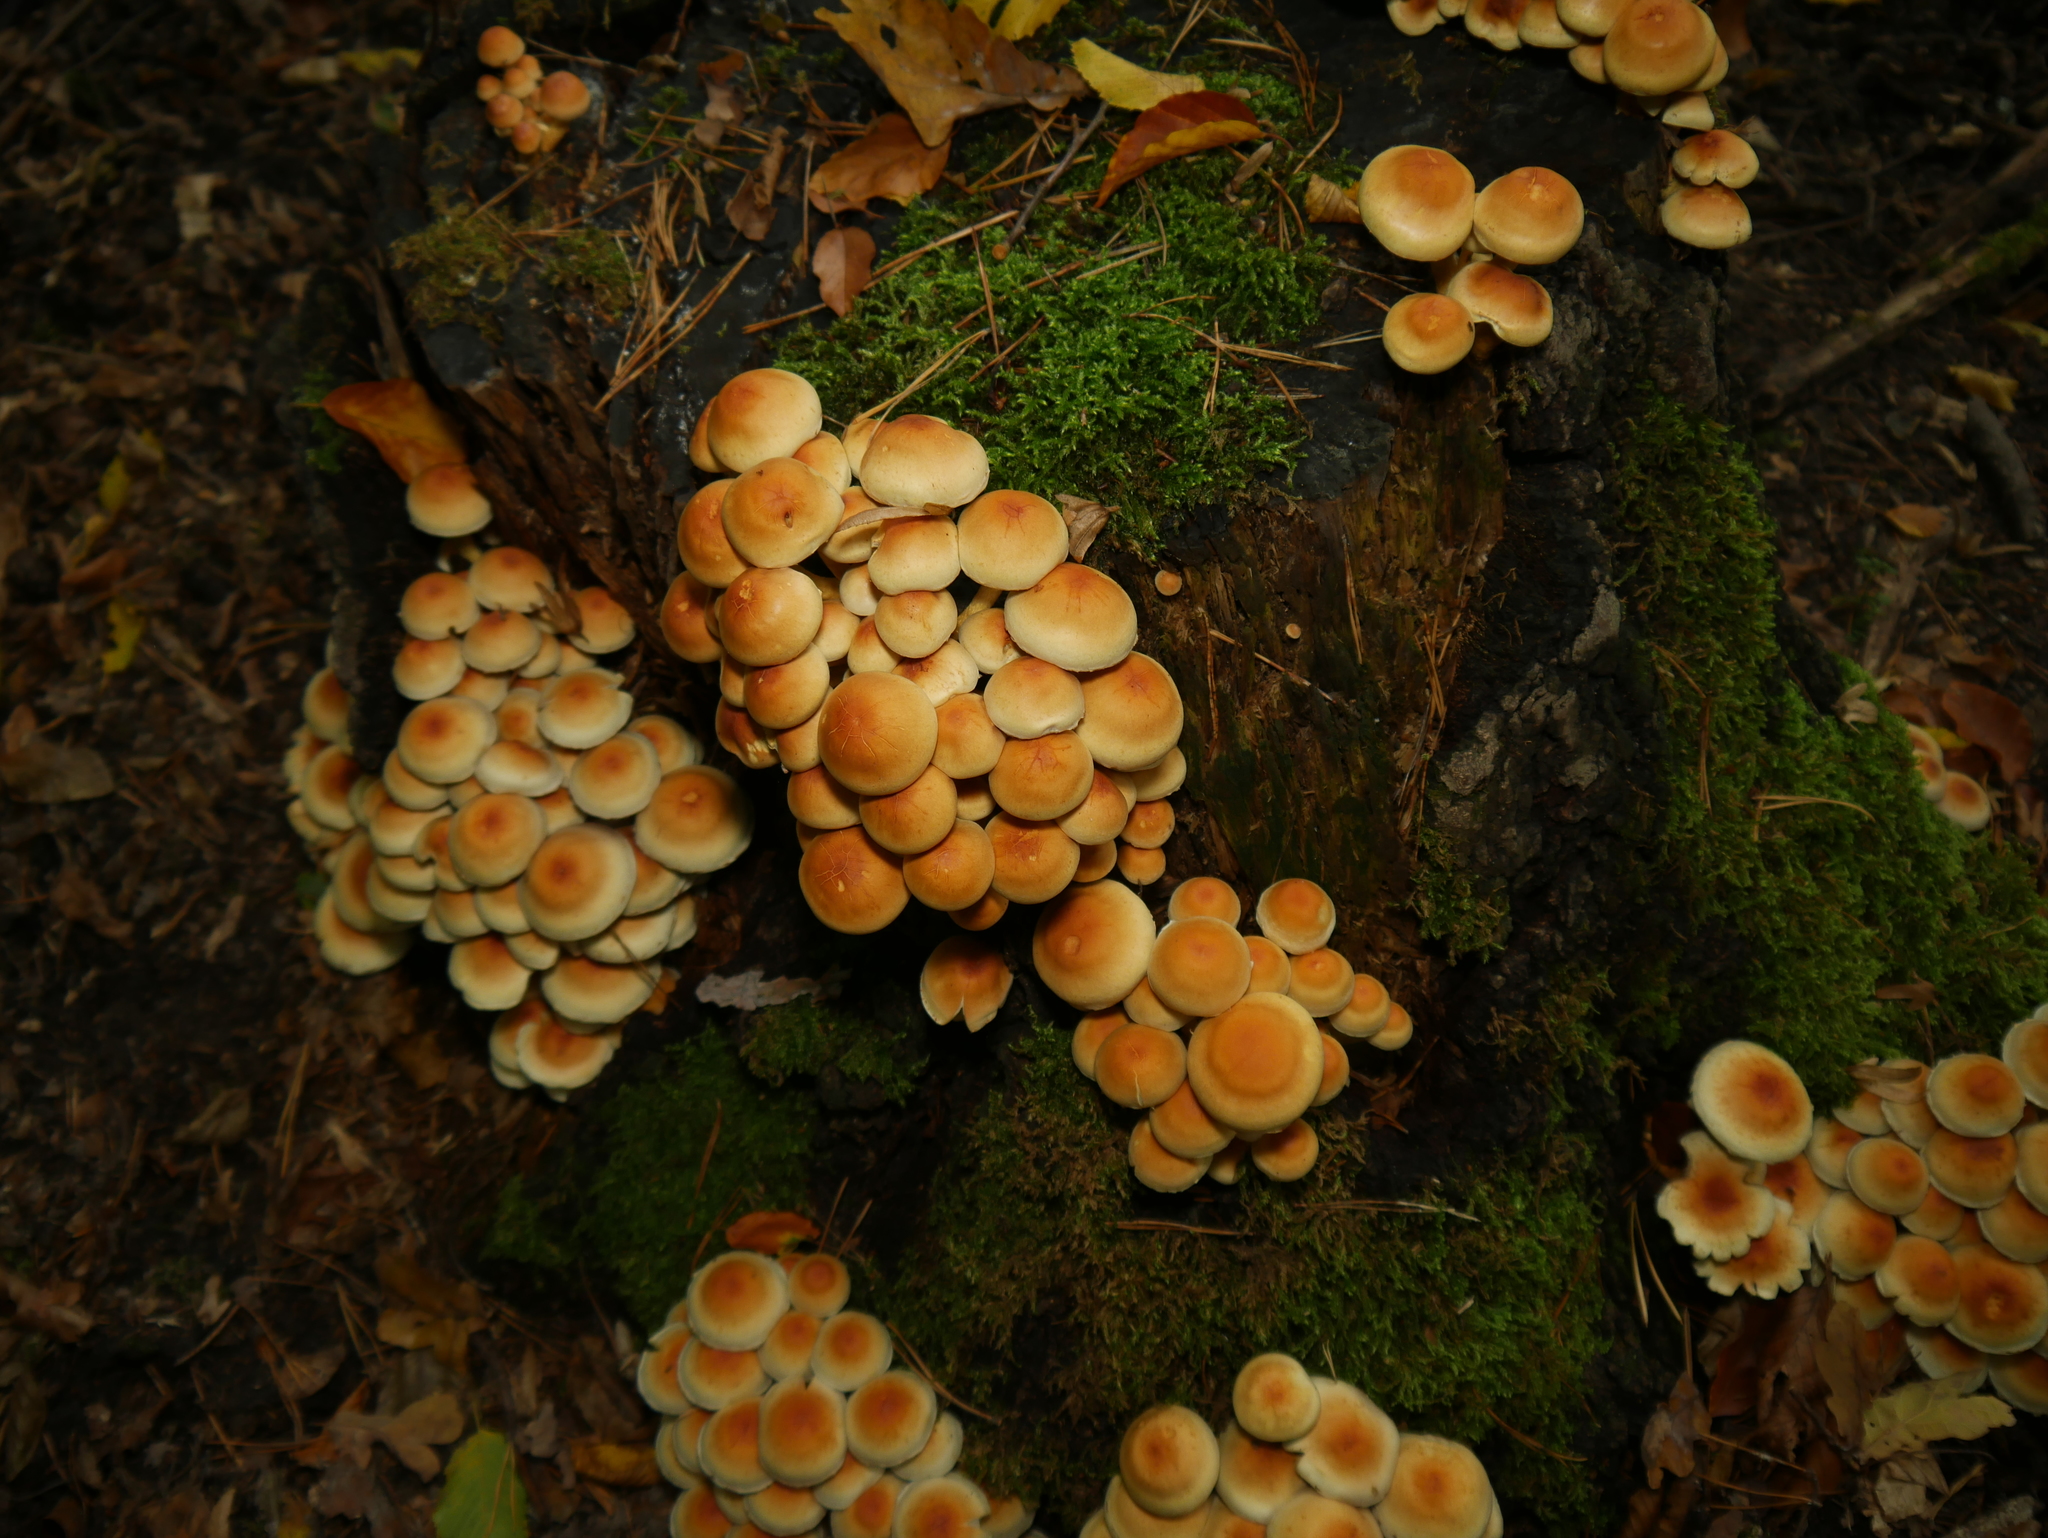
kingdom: Fungi
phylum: Basidiomycota
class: Agaricomycetes
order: Agaricales
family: Strophariaceae
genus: Hypholoma
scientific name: Hypholoma fasciculare
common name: Sulphur tuft
